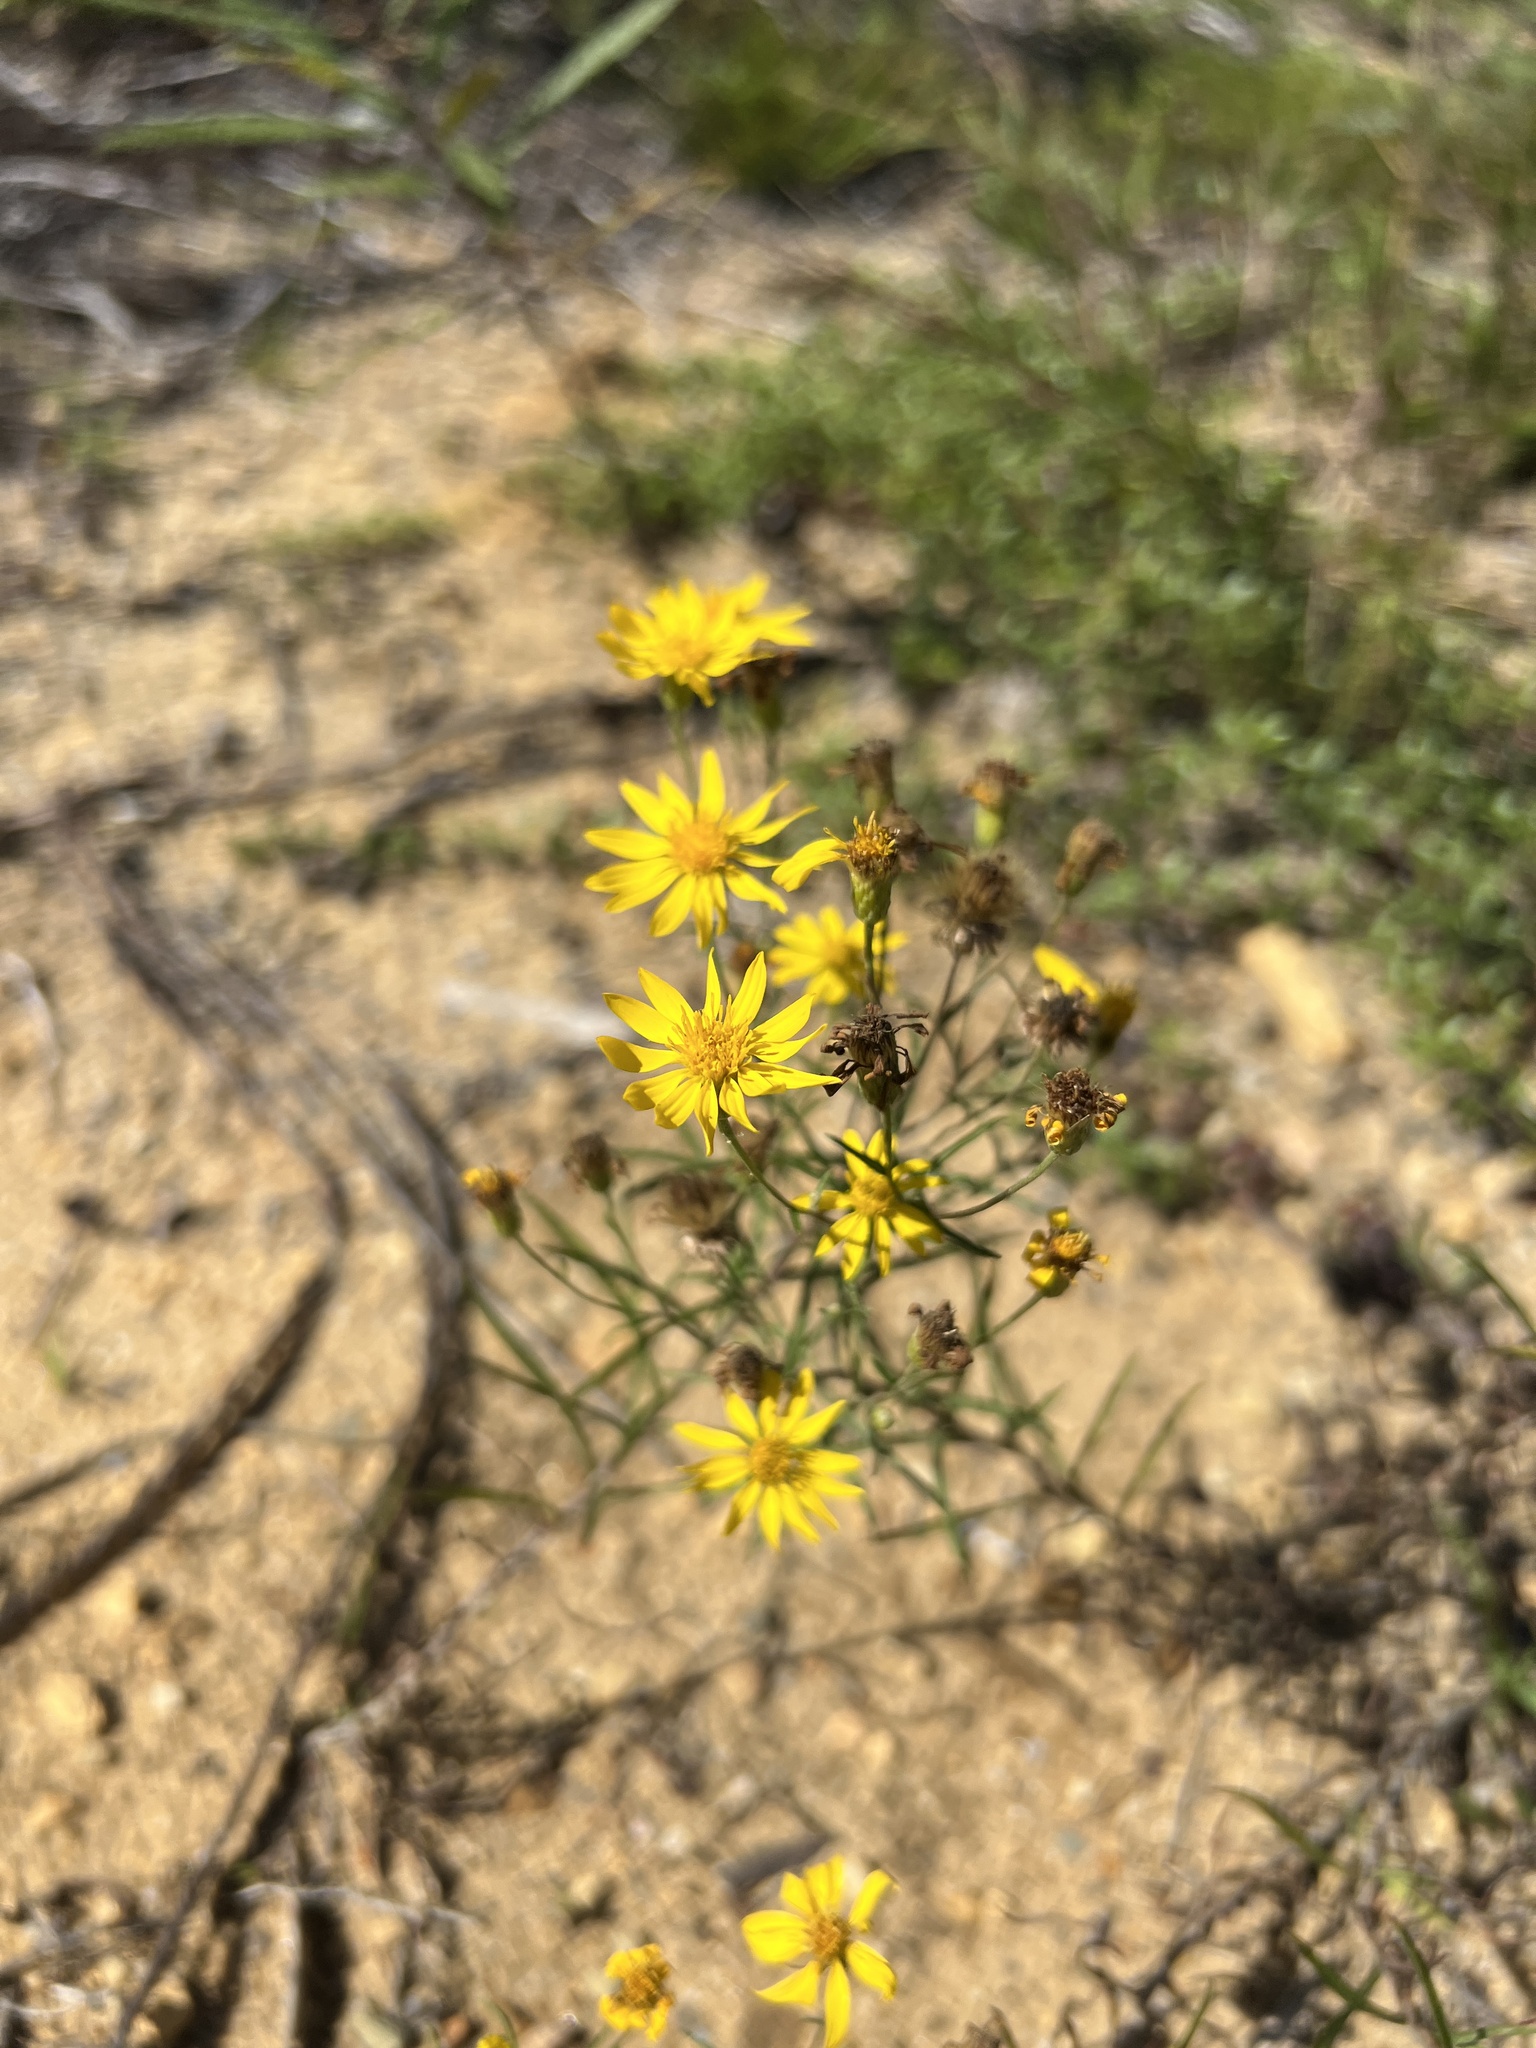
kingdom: Plantae
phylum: Tracheophyta
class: Magnoliopsida
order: Asterales
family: Asteraceae
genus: Pityopsis
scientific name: Pityopsis falcata
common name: Sickle-leaved goldenaster
